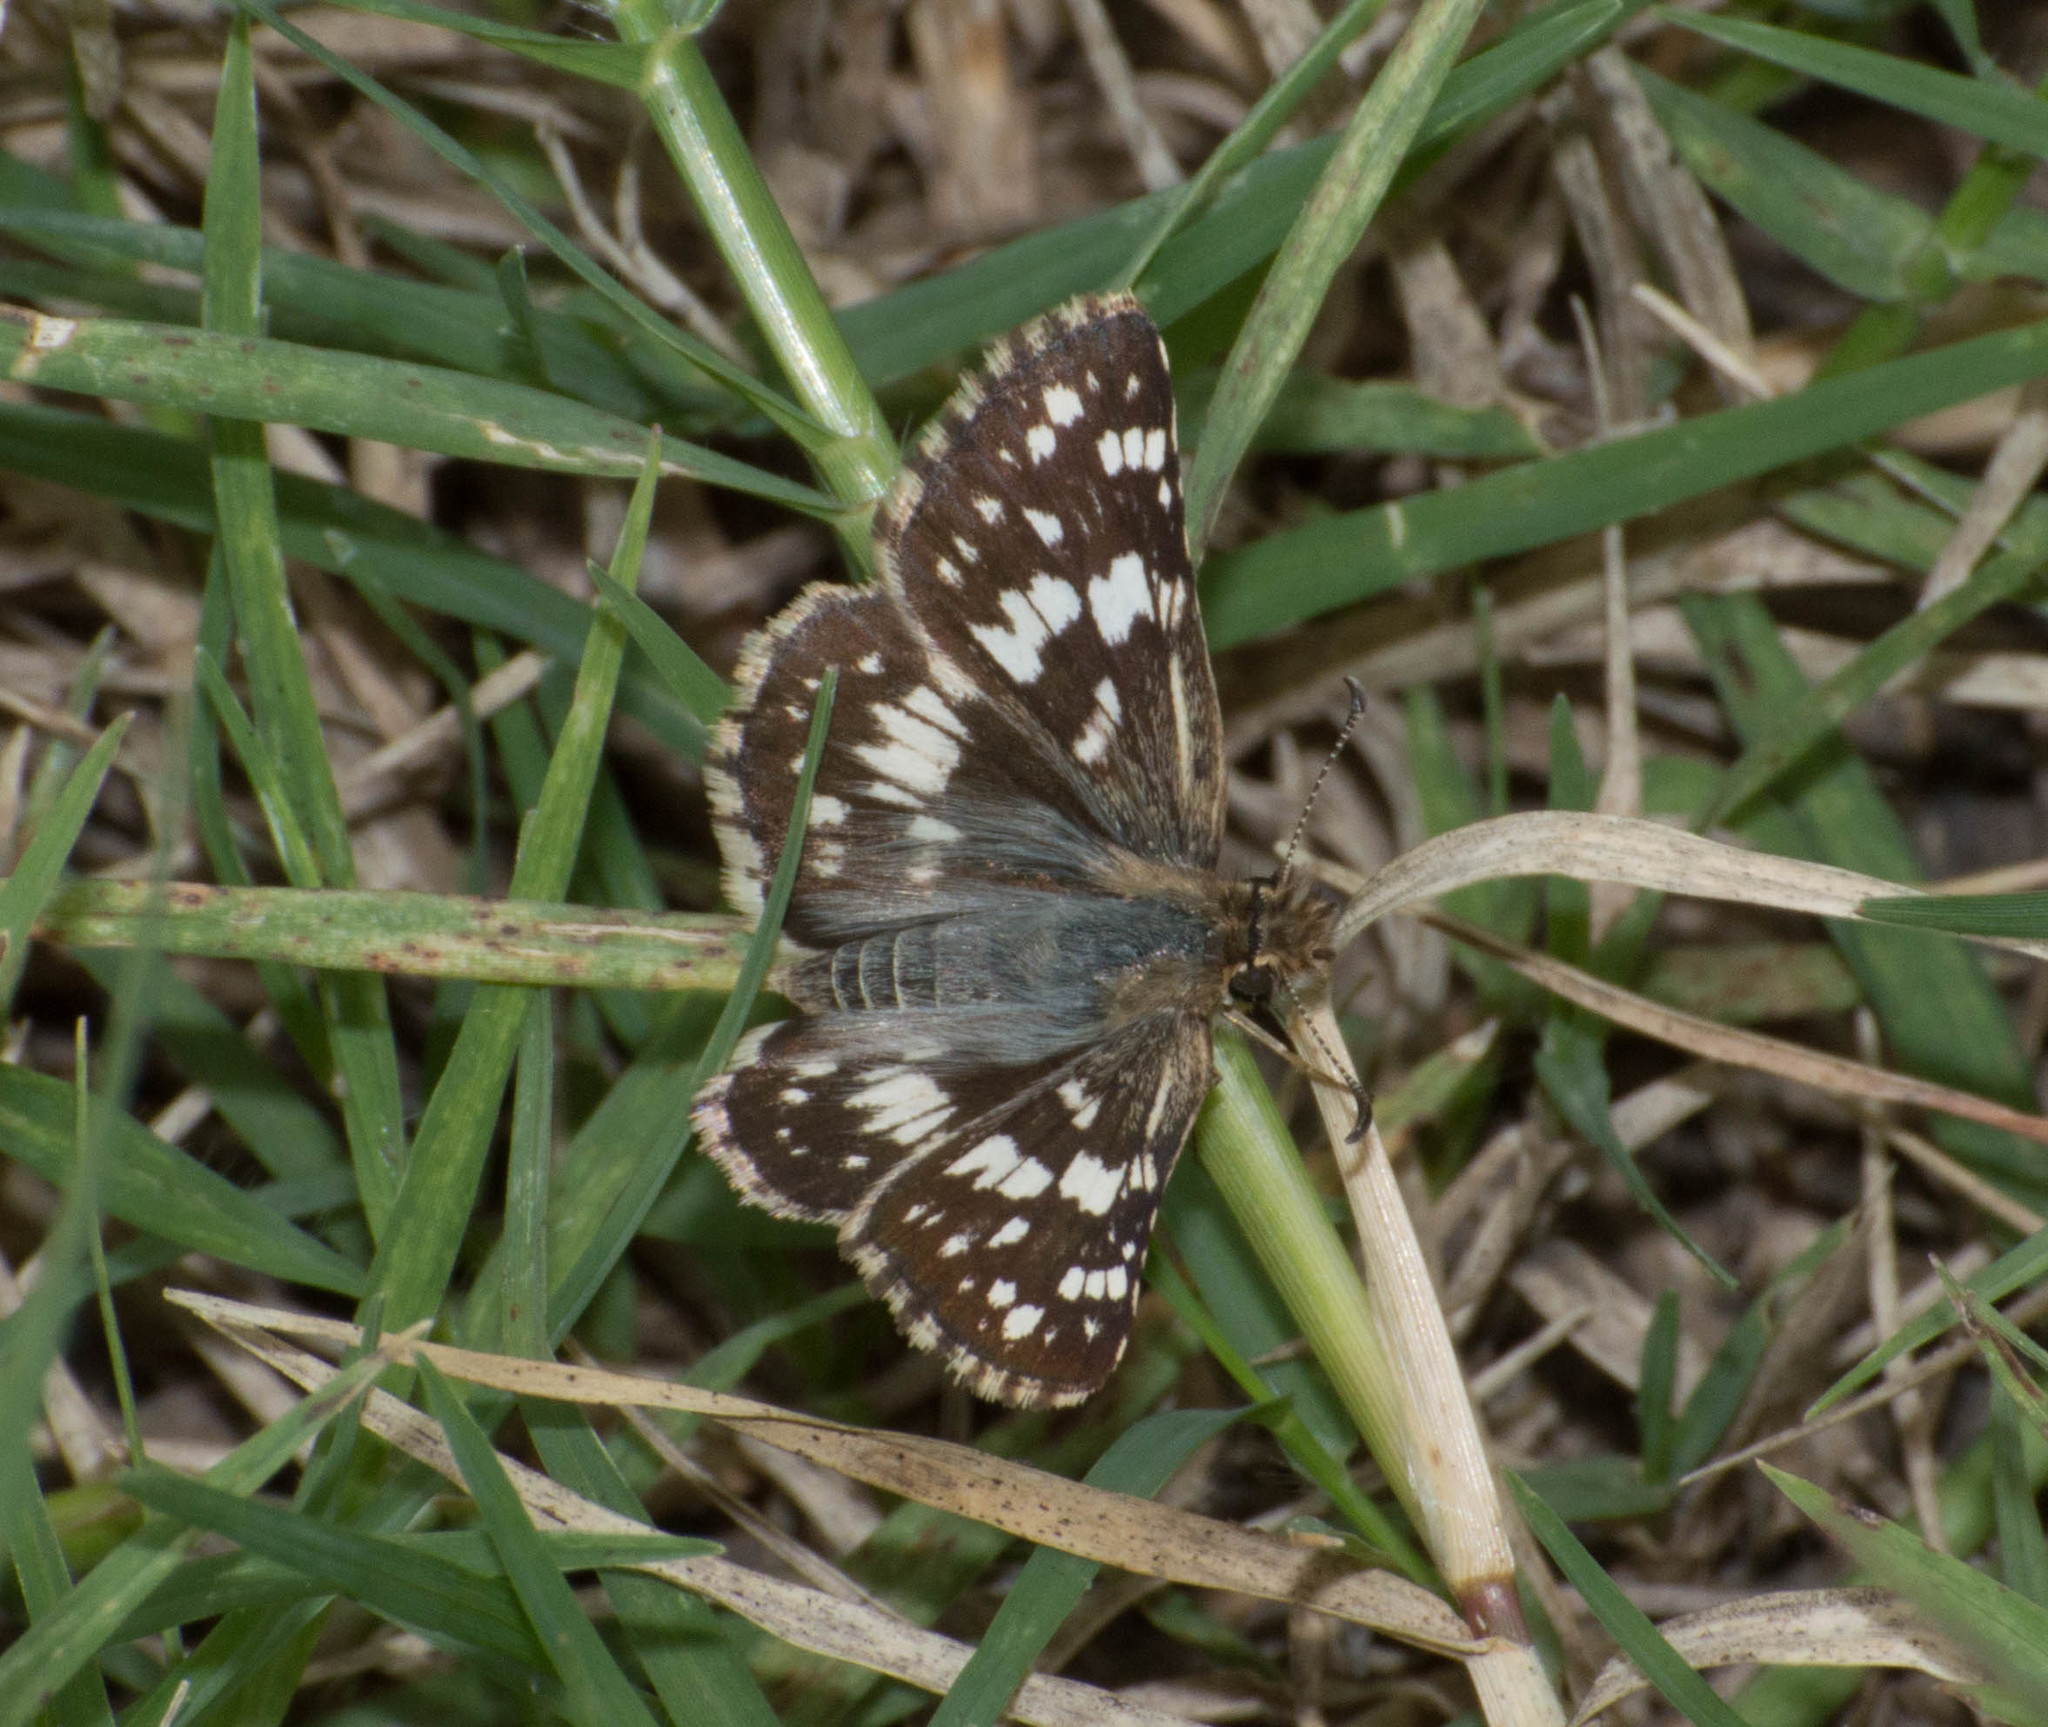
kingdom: Animalia
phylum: Arthropoda
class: Insecta
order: Lepidoptera
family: Hesperiidae
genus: Burnsius
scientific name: Burnsius orcynoides
